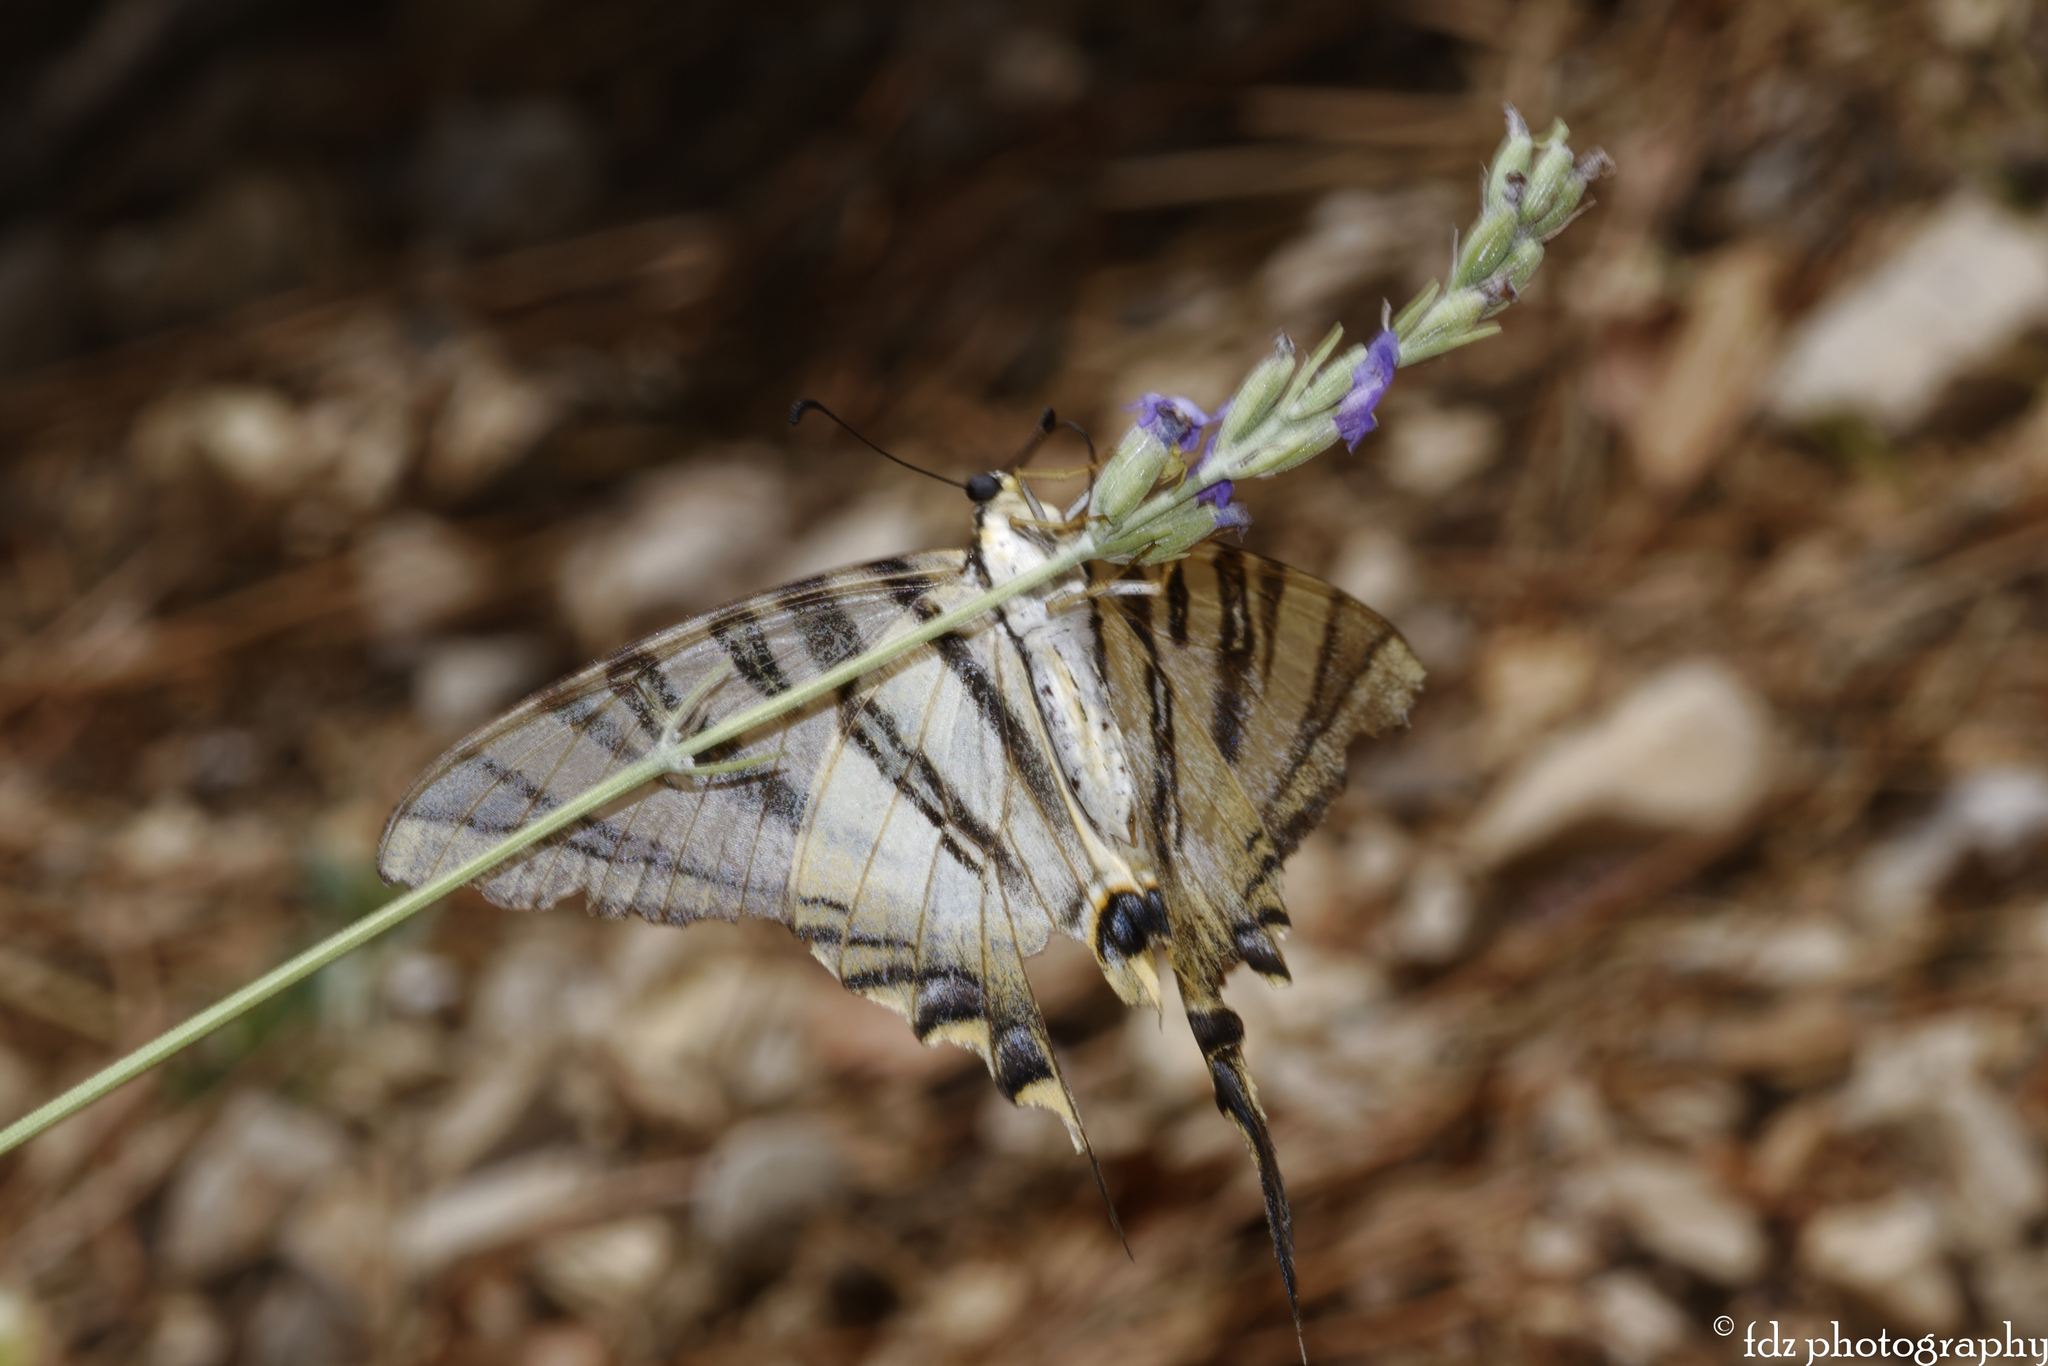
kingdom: Animalia
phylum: Arthropoda
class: Insecta
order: Lepidoptera
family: Papilionidae
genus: Iphiclides
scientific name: Iphiclides feisthamelii
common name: Iberian scarce swallowtail
